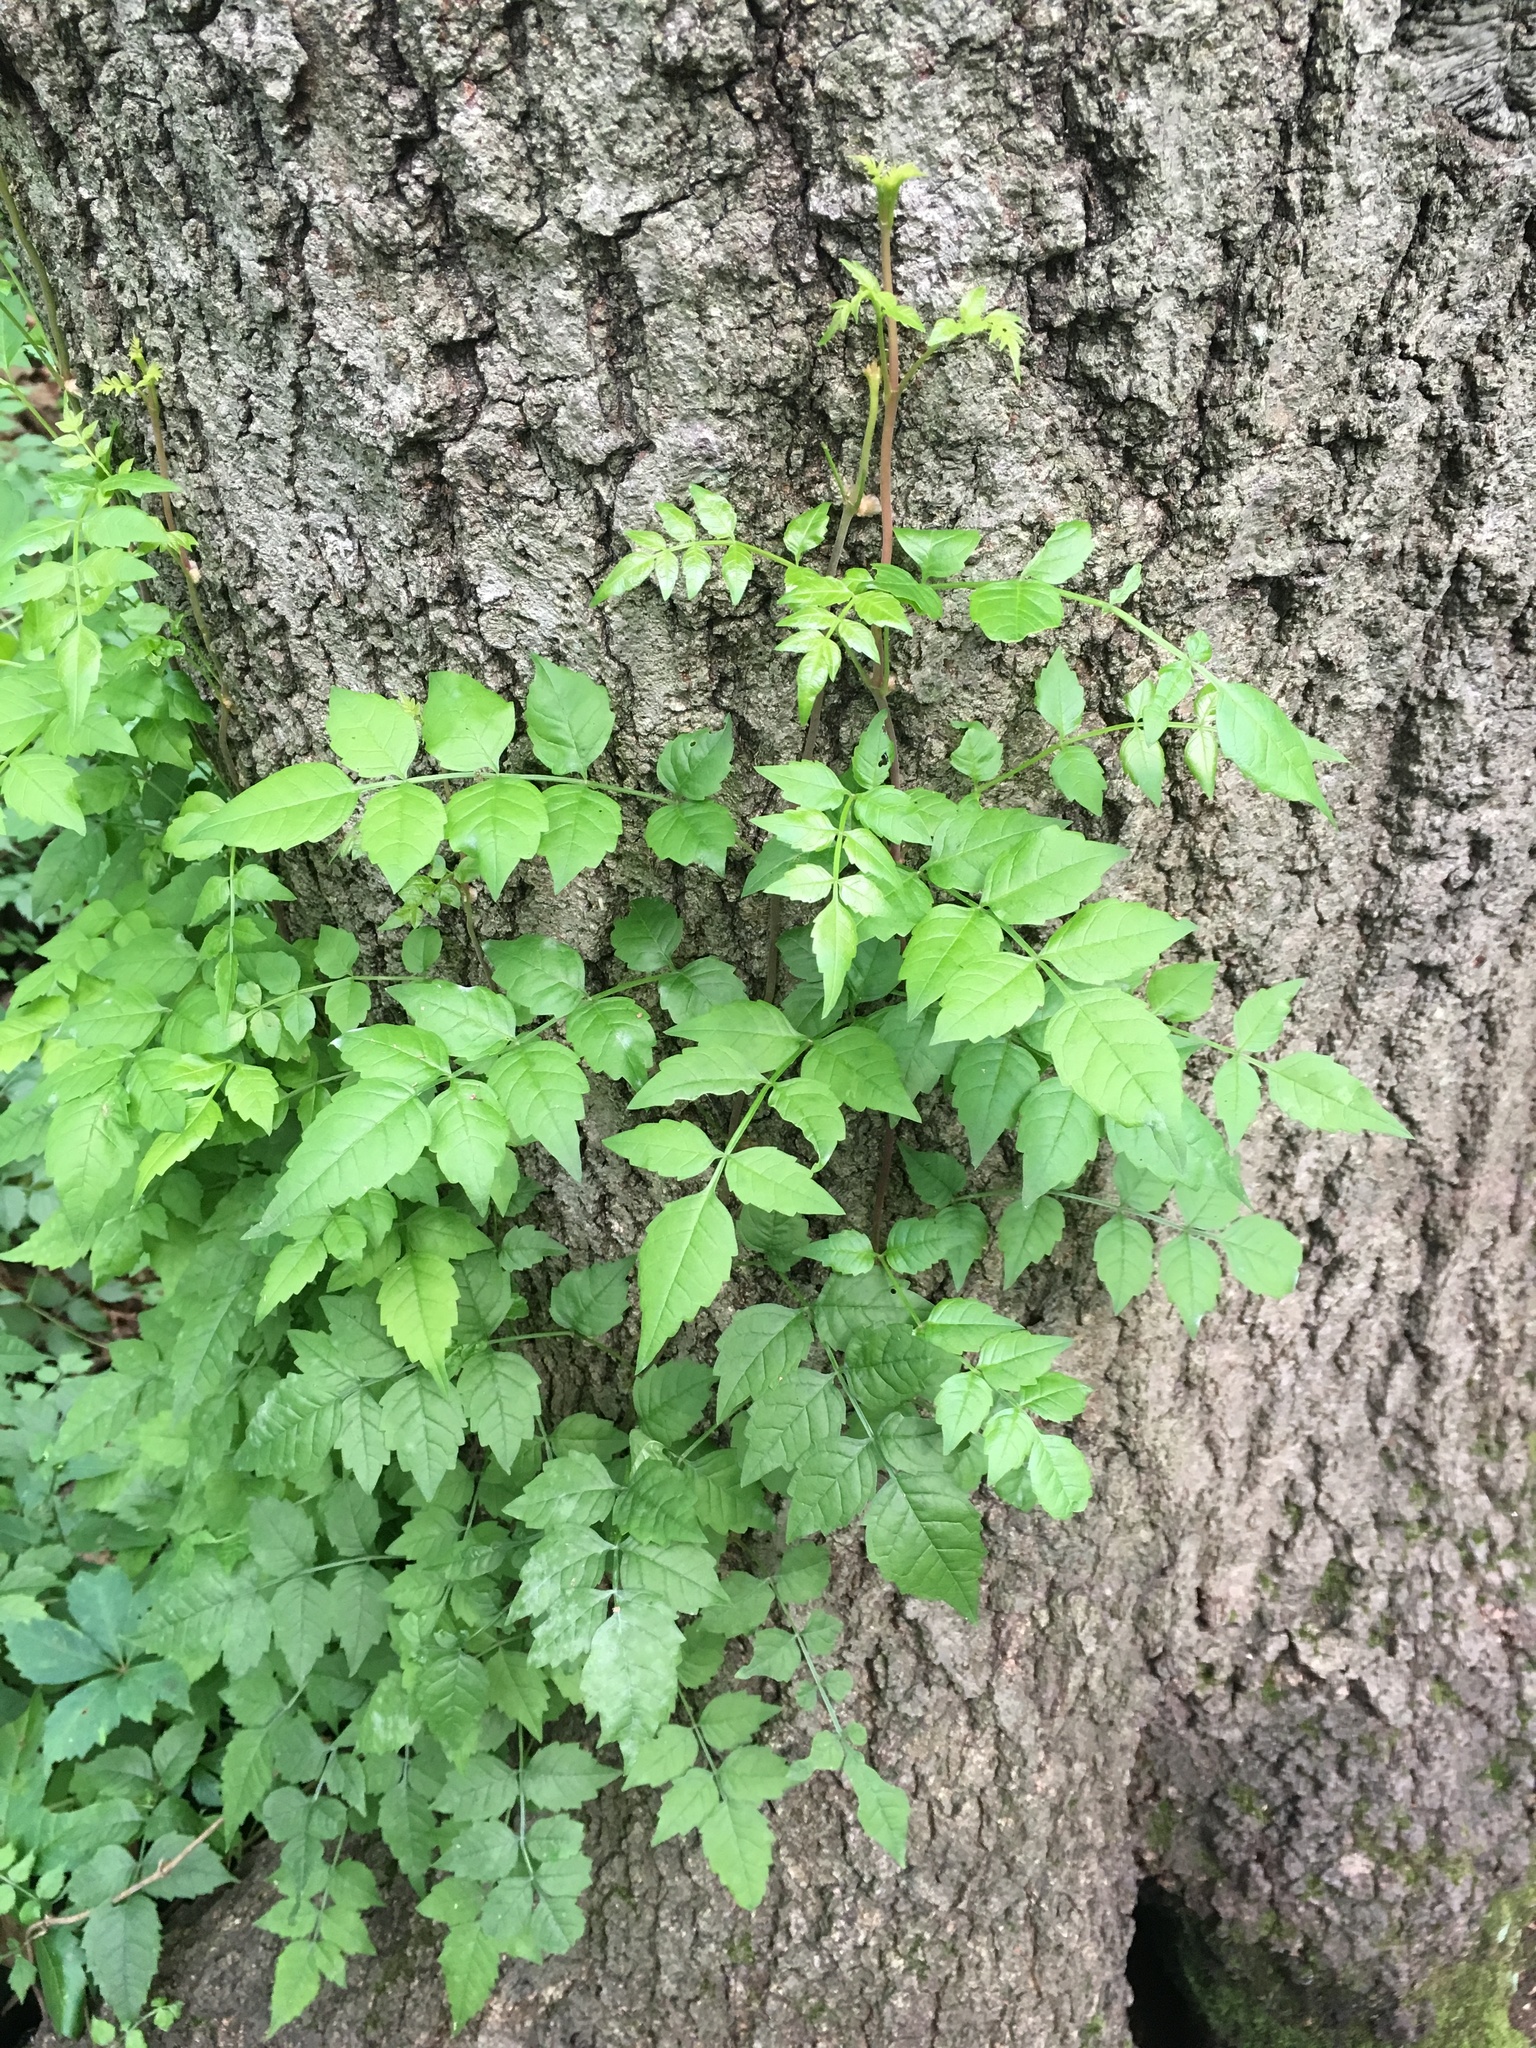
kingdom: Plantae
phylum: Tracheophyta
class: Magnoliopsida
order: Lamiales
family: Bignoniaceae
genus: Campsis
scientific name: Campsis radicans
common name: Trumpet-creeper
